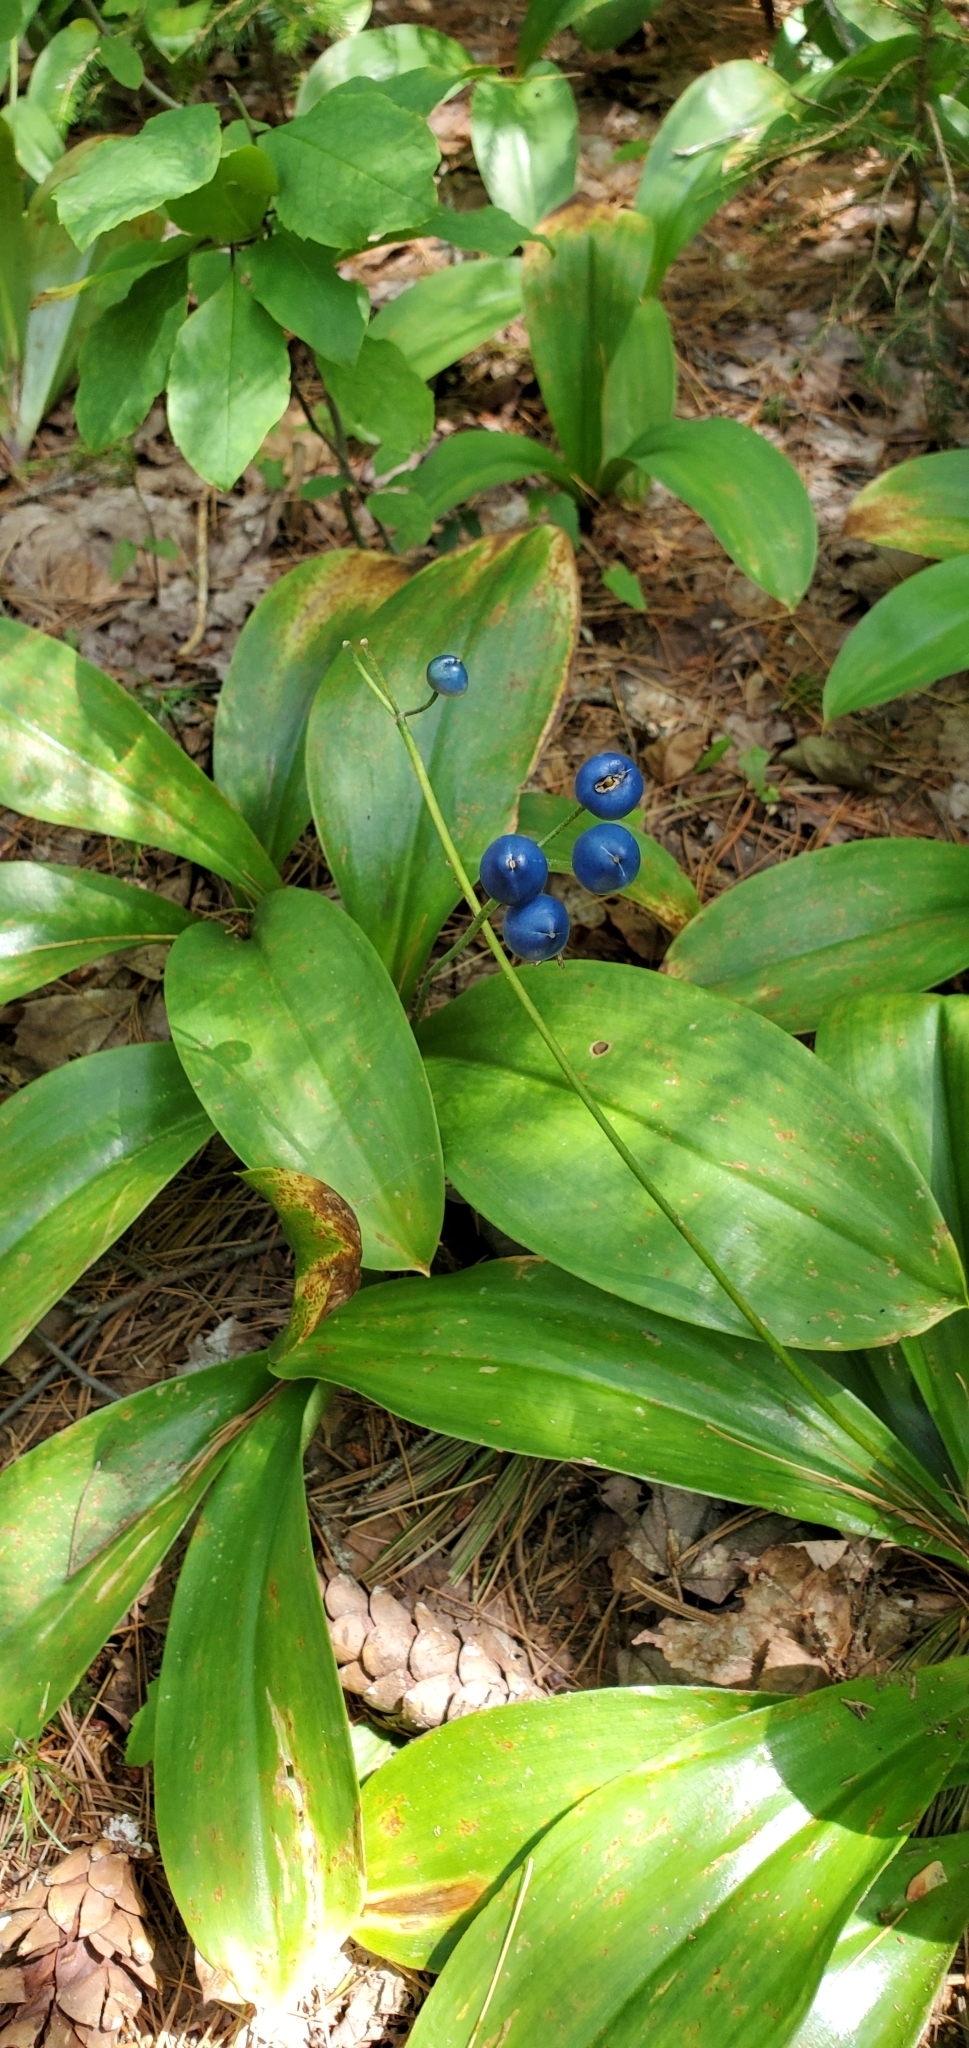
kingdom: Plantae
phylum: Tracheophyta
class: Liliopsida
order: Liliales
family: Liliaceae
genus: Clintonia
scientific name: Clintonia borealis
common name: Yellow clintonia
